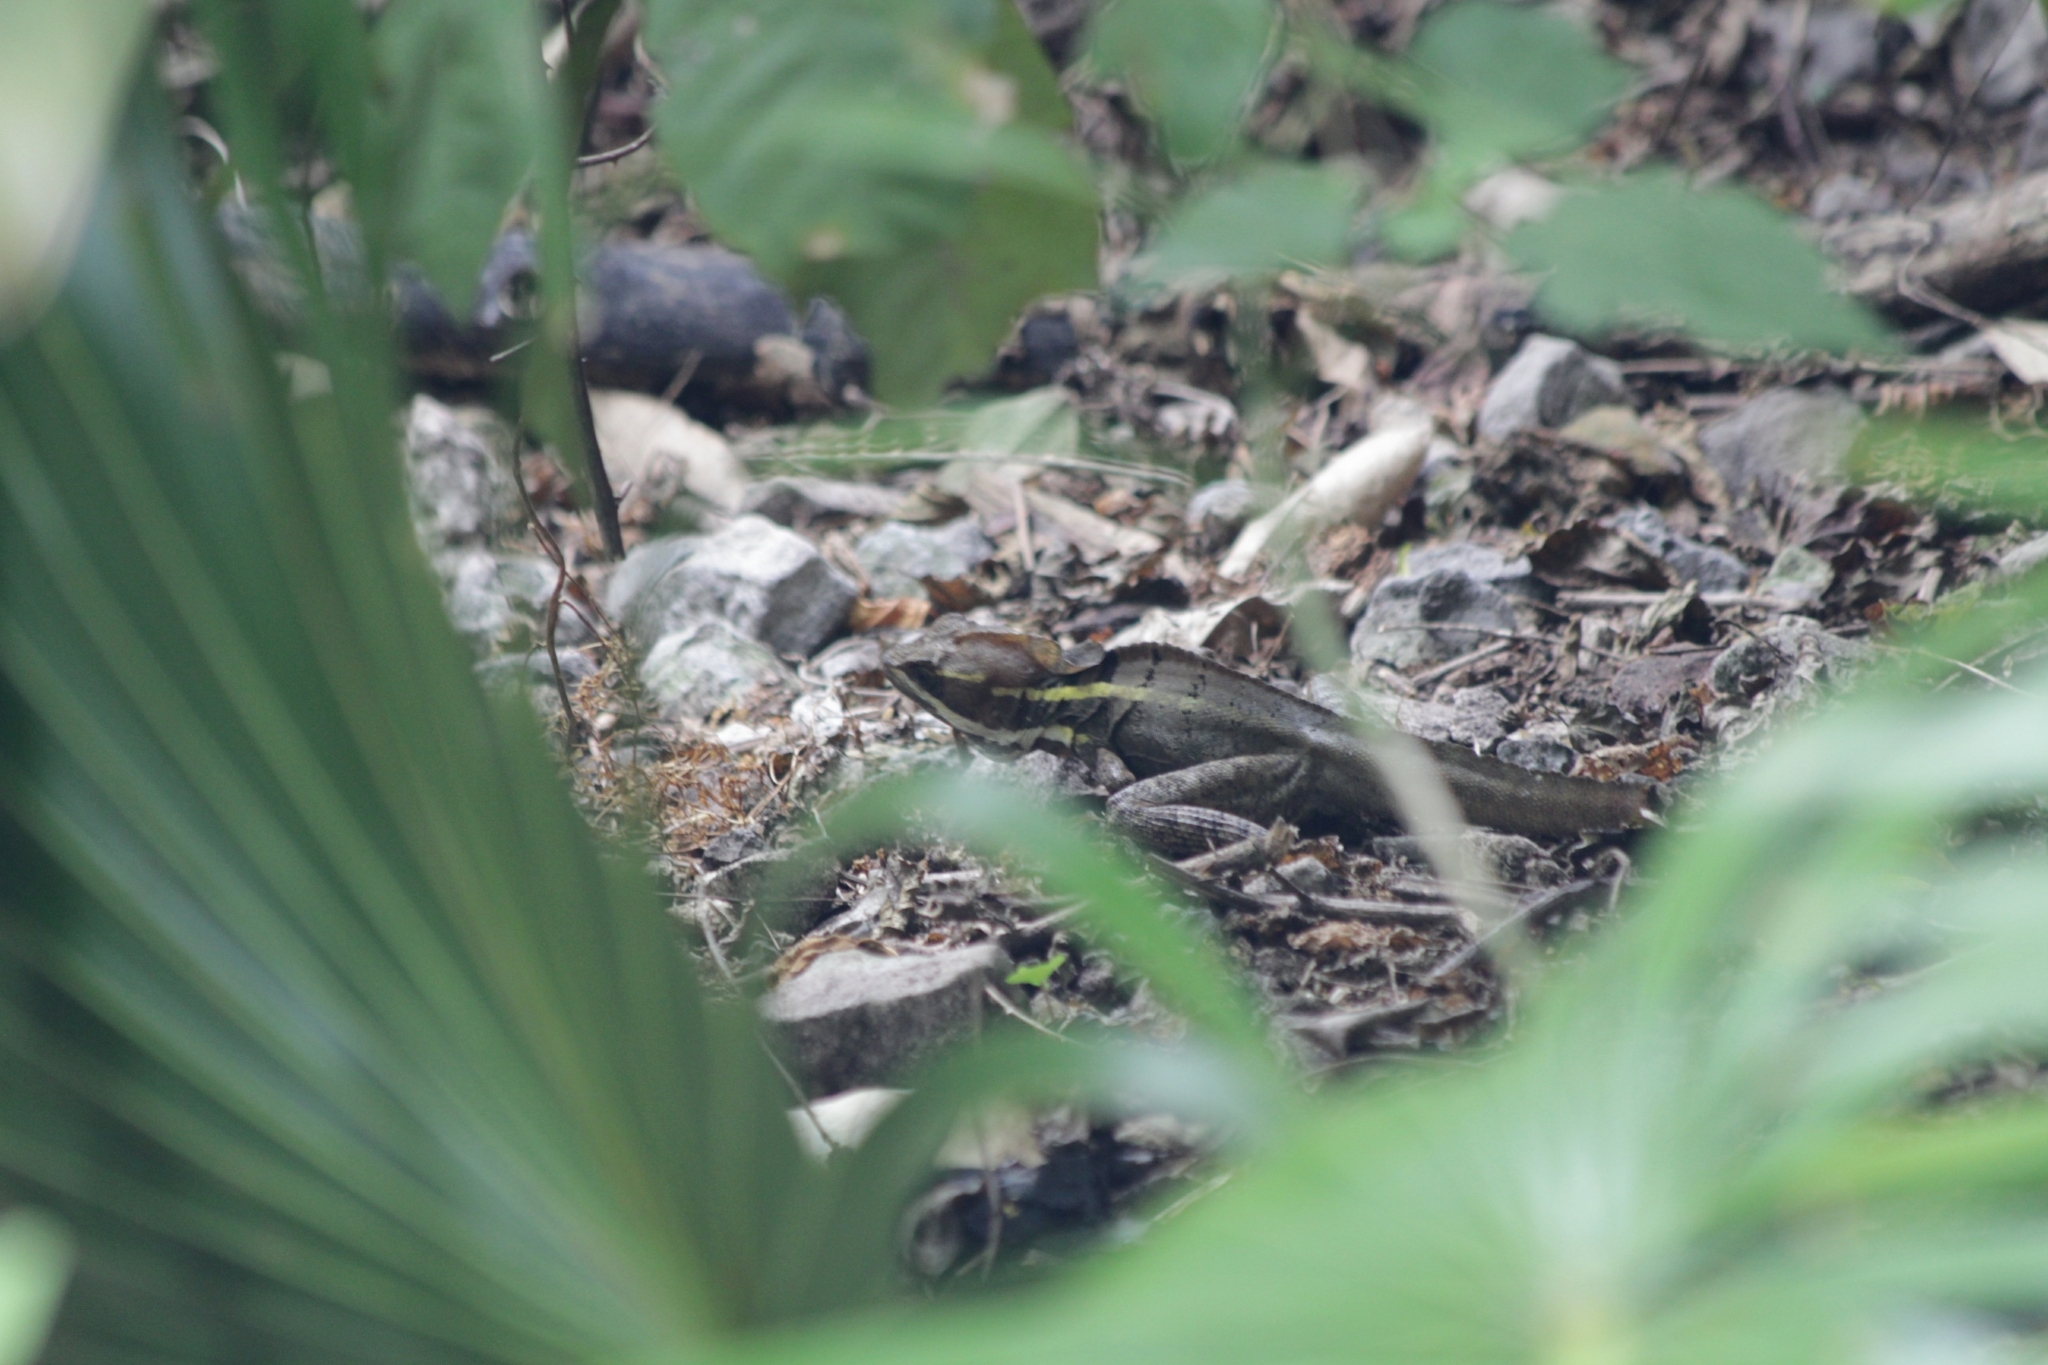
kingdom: Animalia
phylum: Chordata
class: Squamata
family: Corytophanidae
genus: Basiliscus
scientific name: Basiliscus vittatus
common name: Brown basilisk
